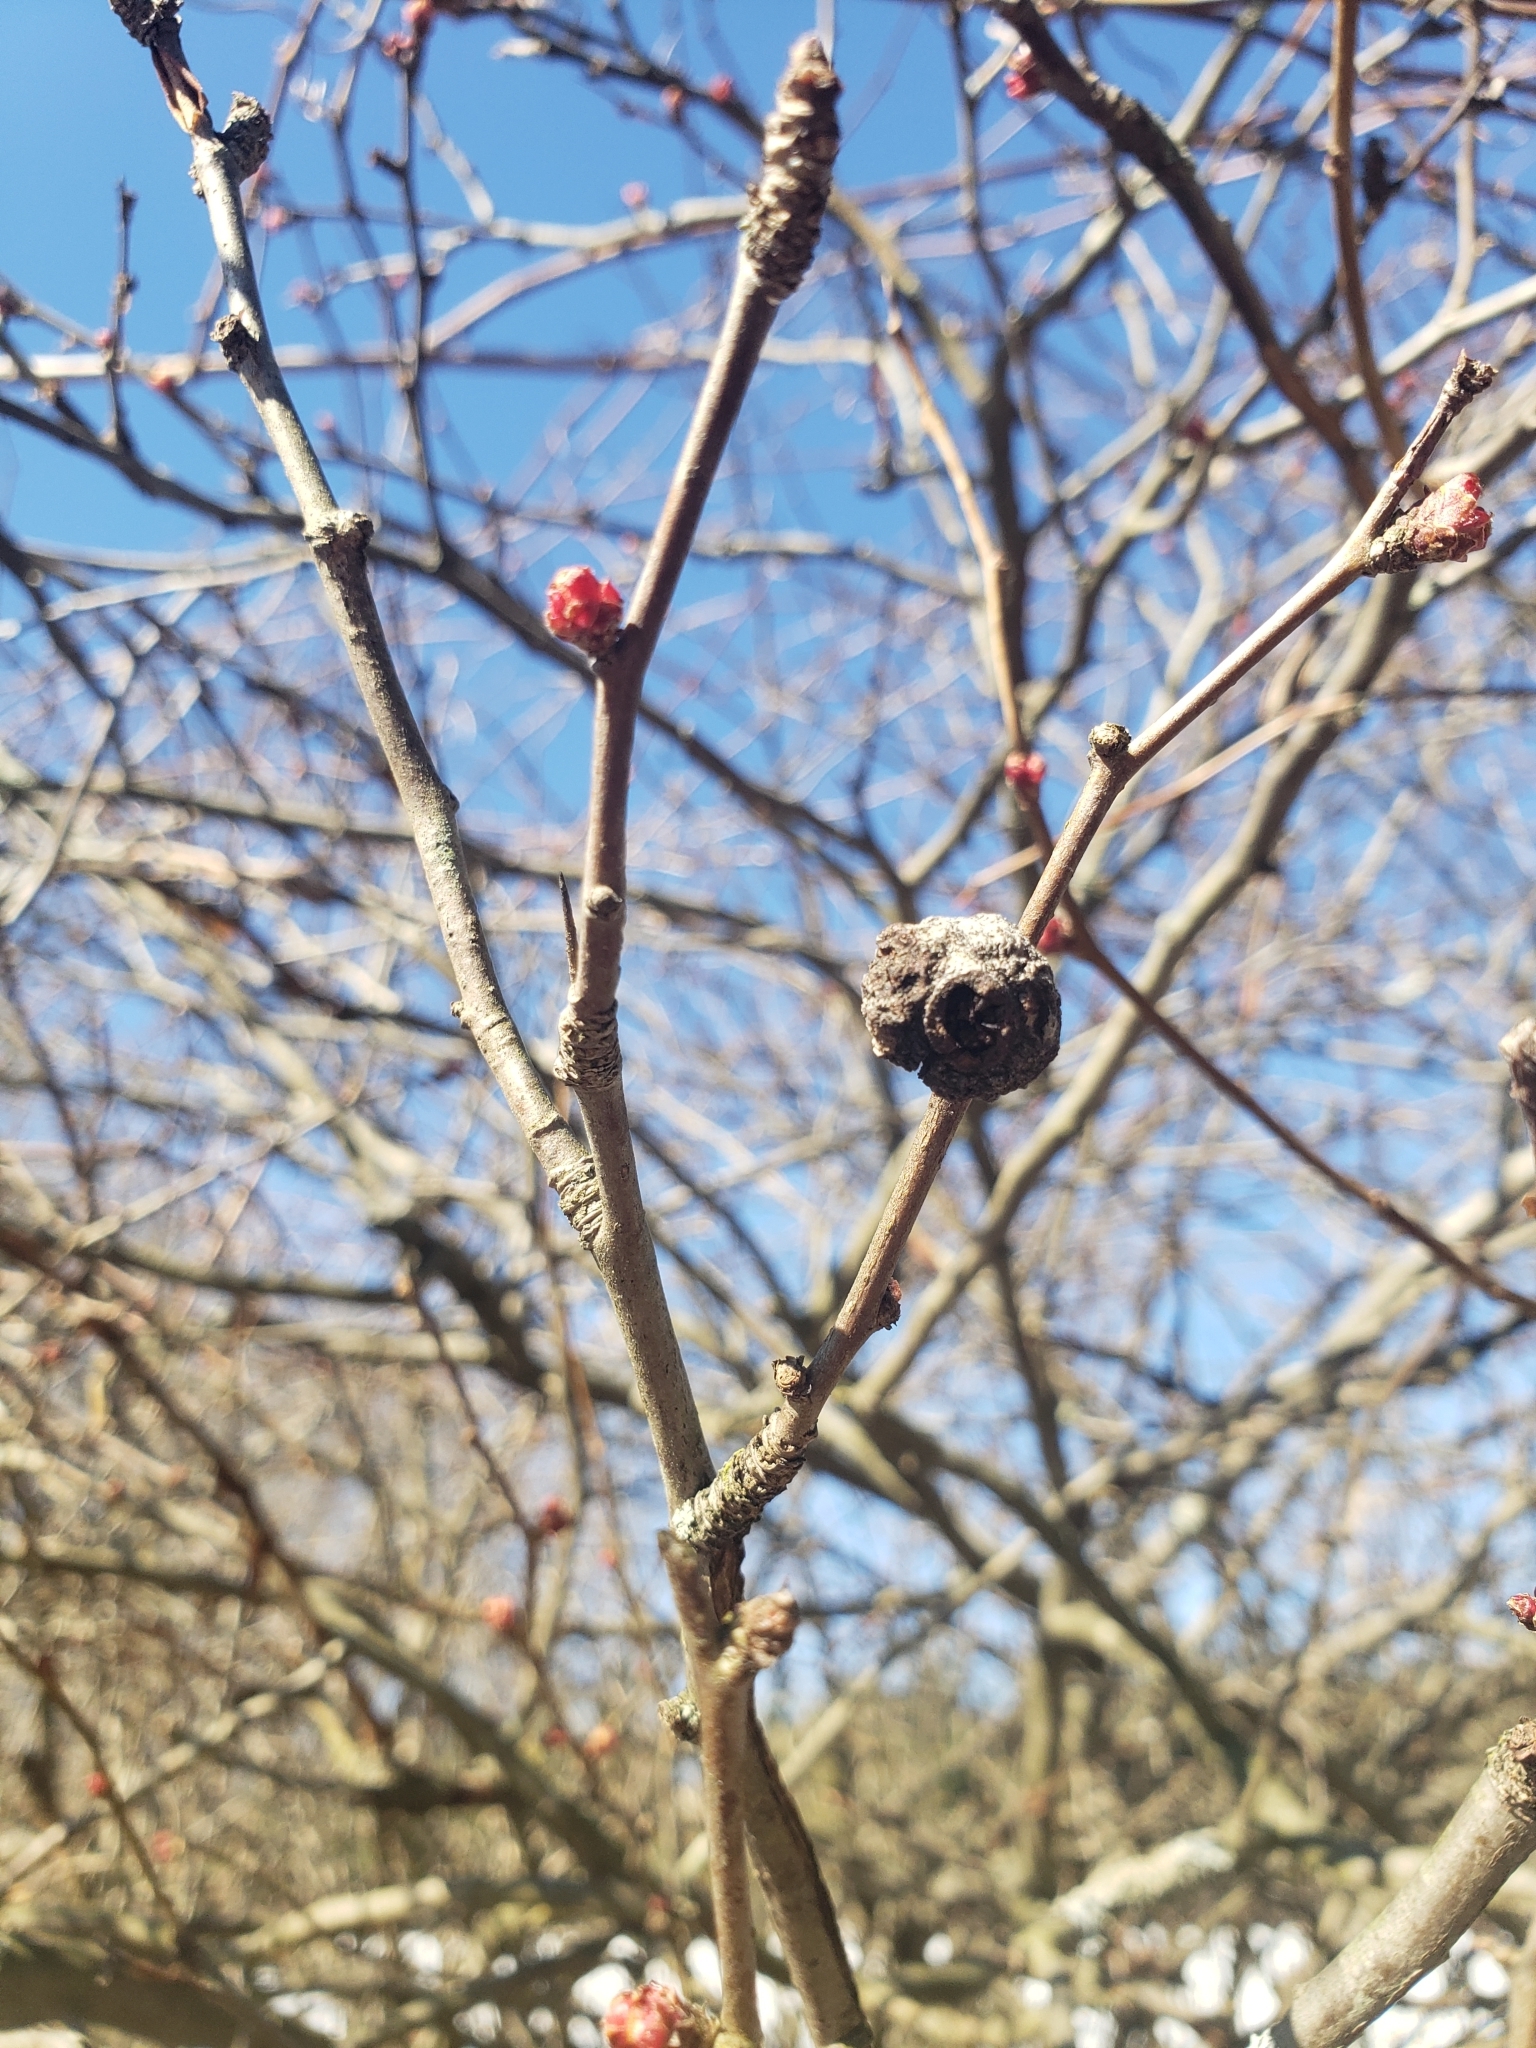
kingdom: Animalia
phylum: Arthropoda
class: Insecta
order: Hemiptera
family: Aphalaridae
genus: Pachypsylla
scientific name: Pachypsylla venusta
